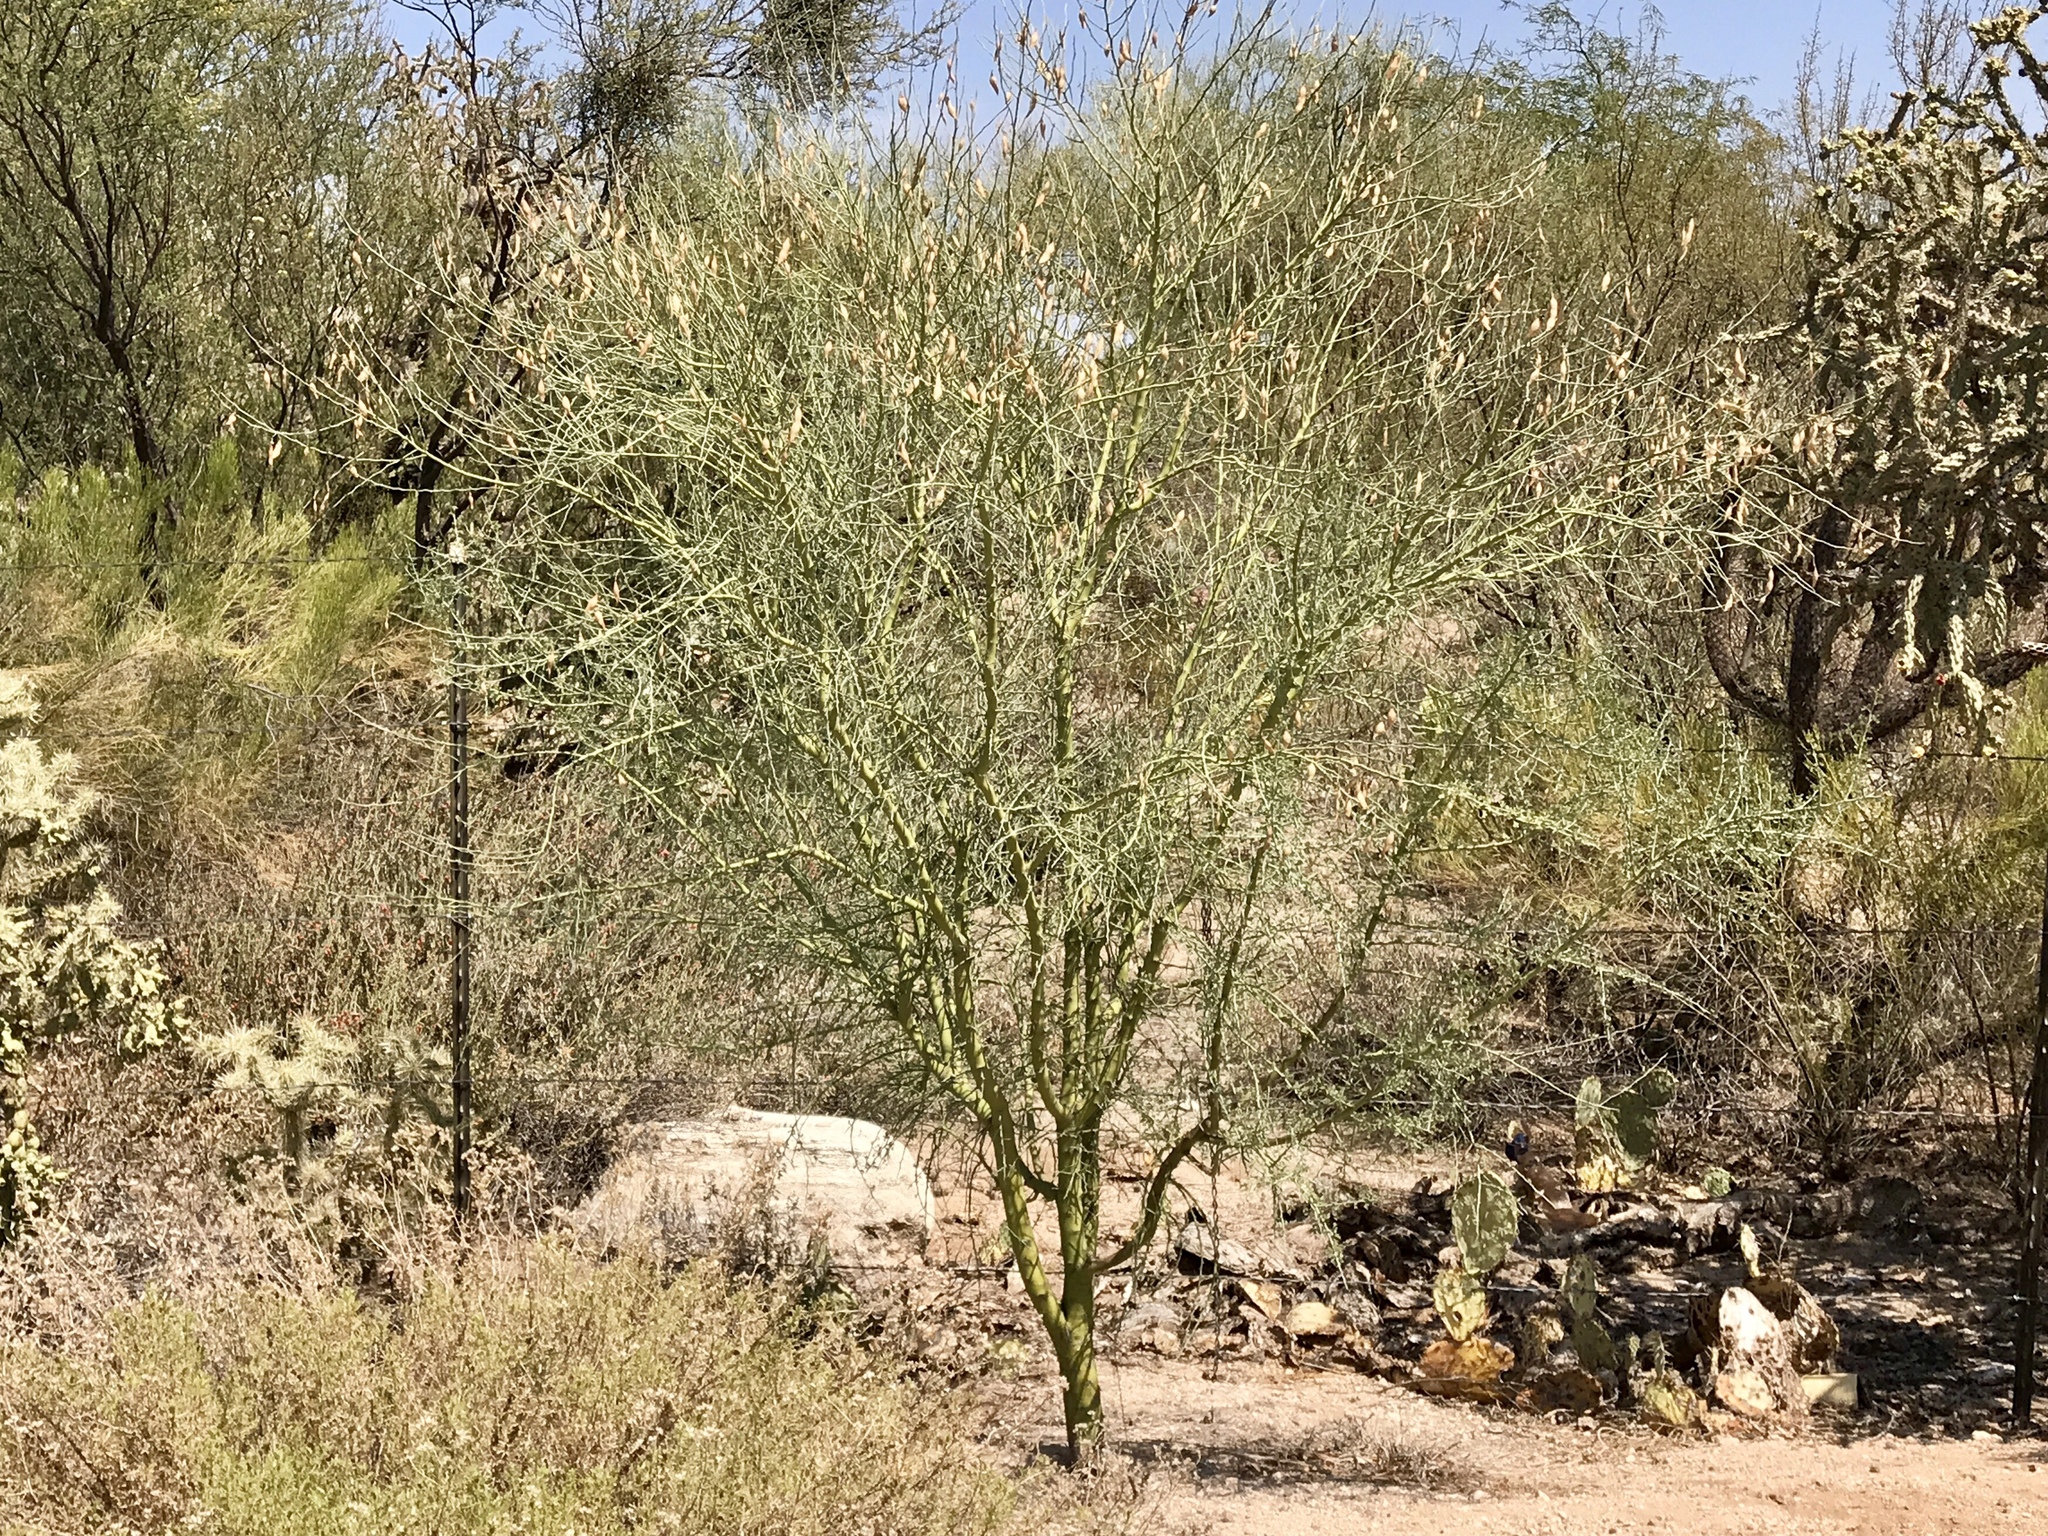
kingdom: Plantae
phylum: Tracheophyta
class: Magnoliopsida
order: Fabales
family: Fabaceae
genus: Parkinsonia
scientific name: Parkinsonia florida
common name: Blue paloverde
